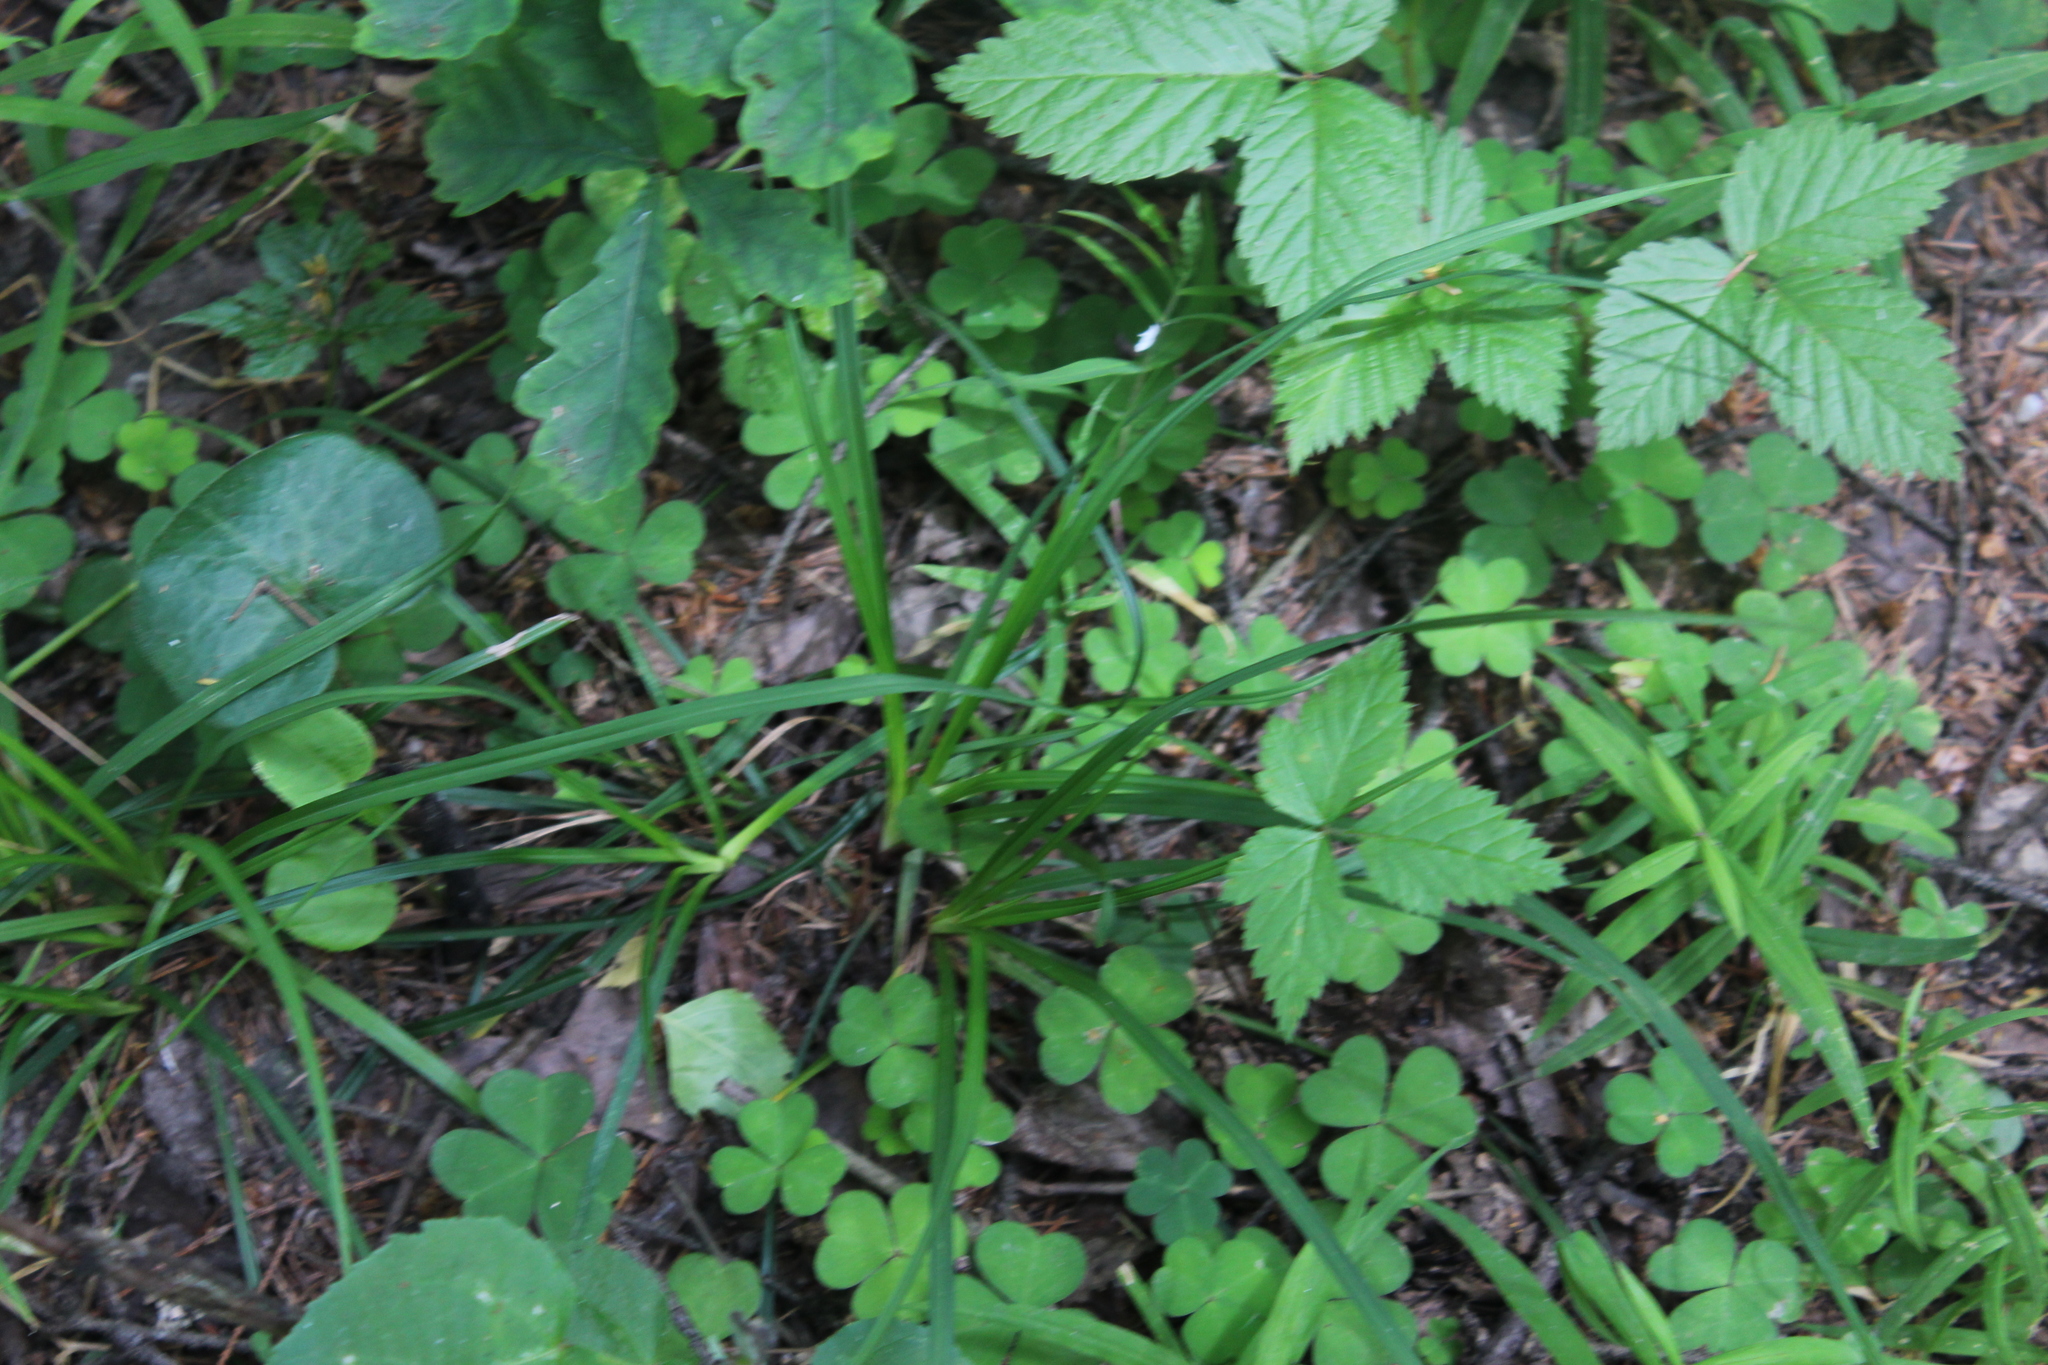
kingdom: Plantae
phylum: Tracheophyta
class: Liliopsida
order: Poales
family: Cyperaceae
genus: Carex
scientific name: Carex digitata
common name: Fingered sedge
